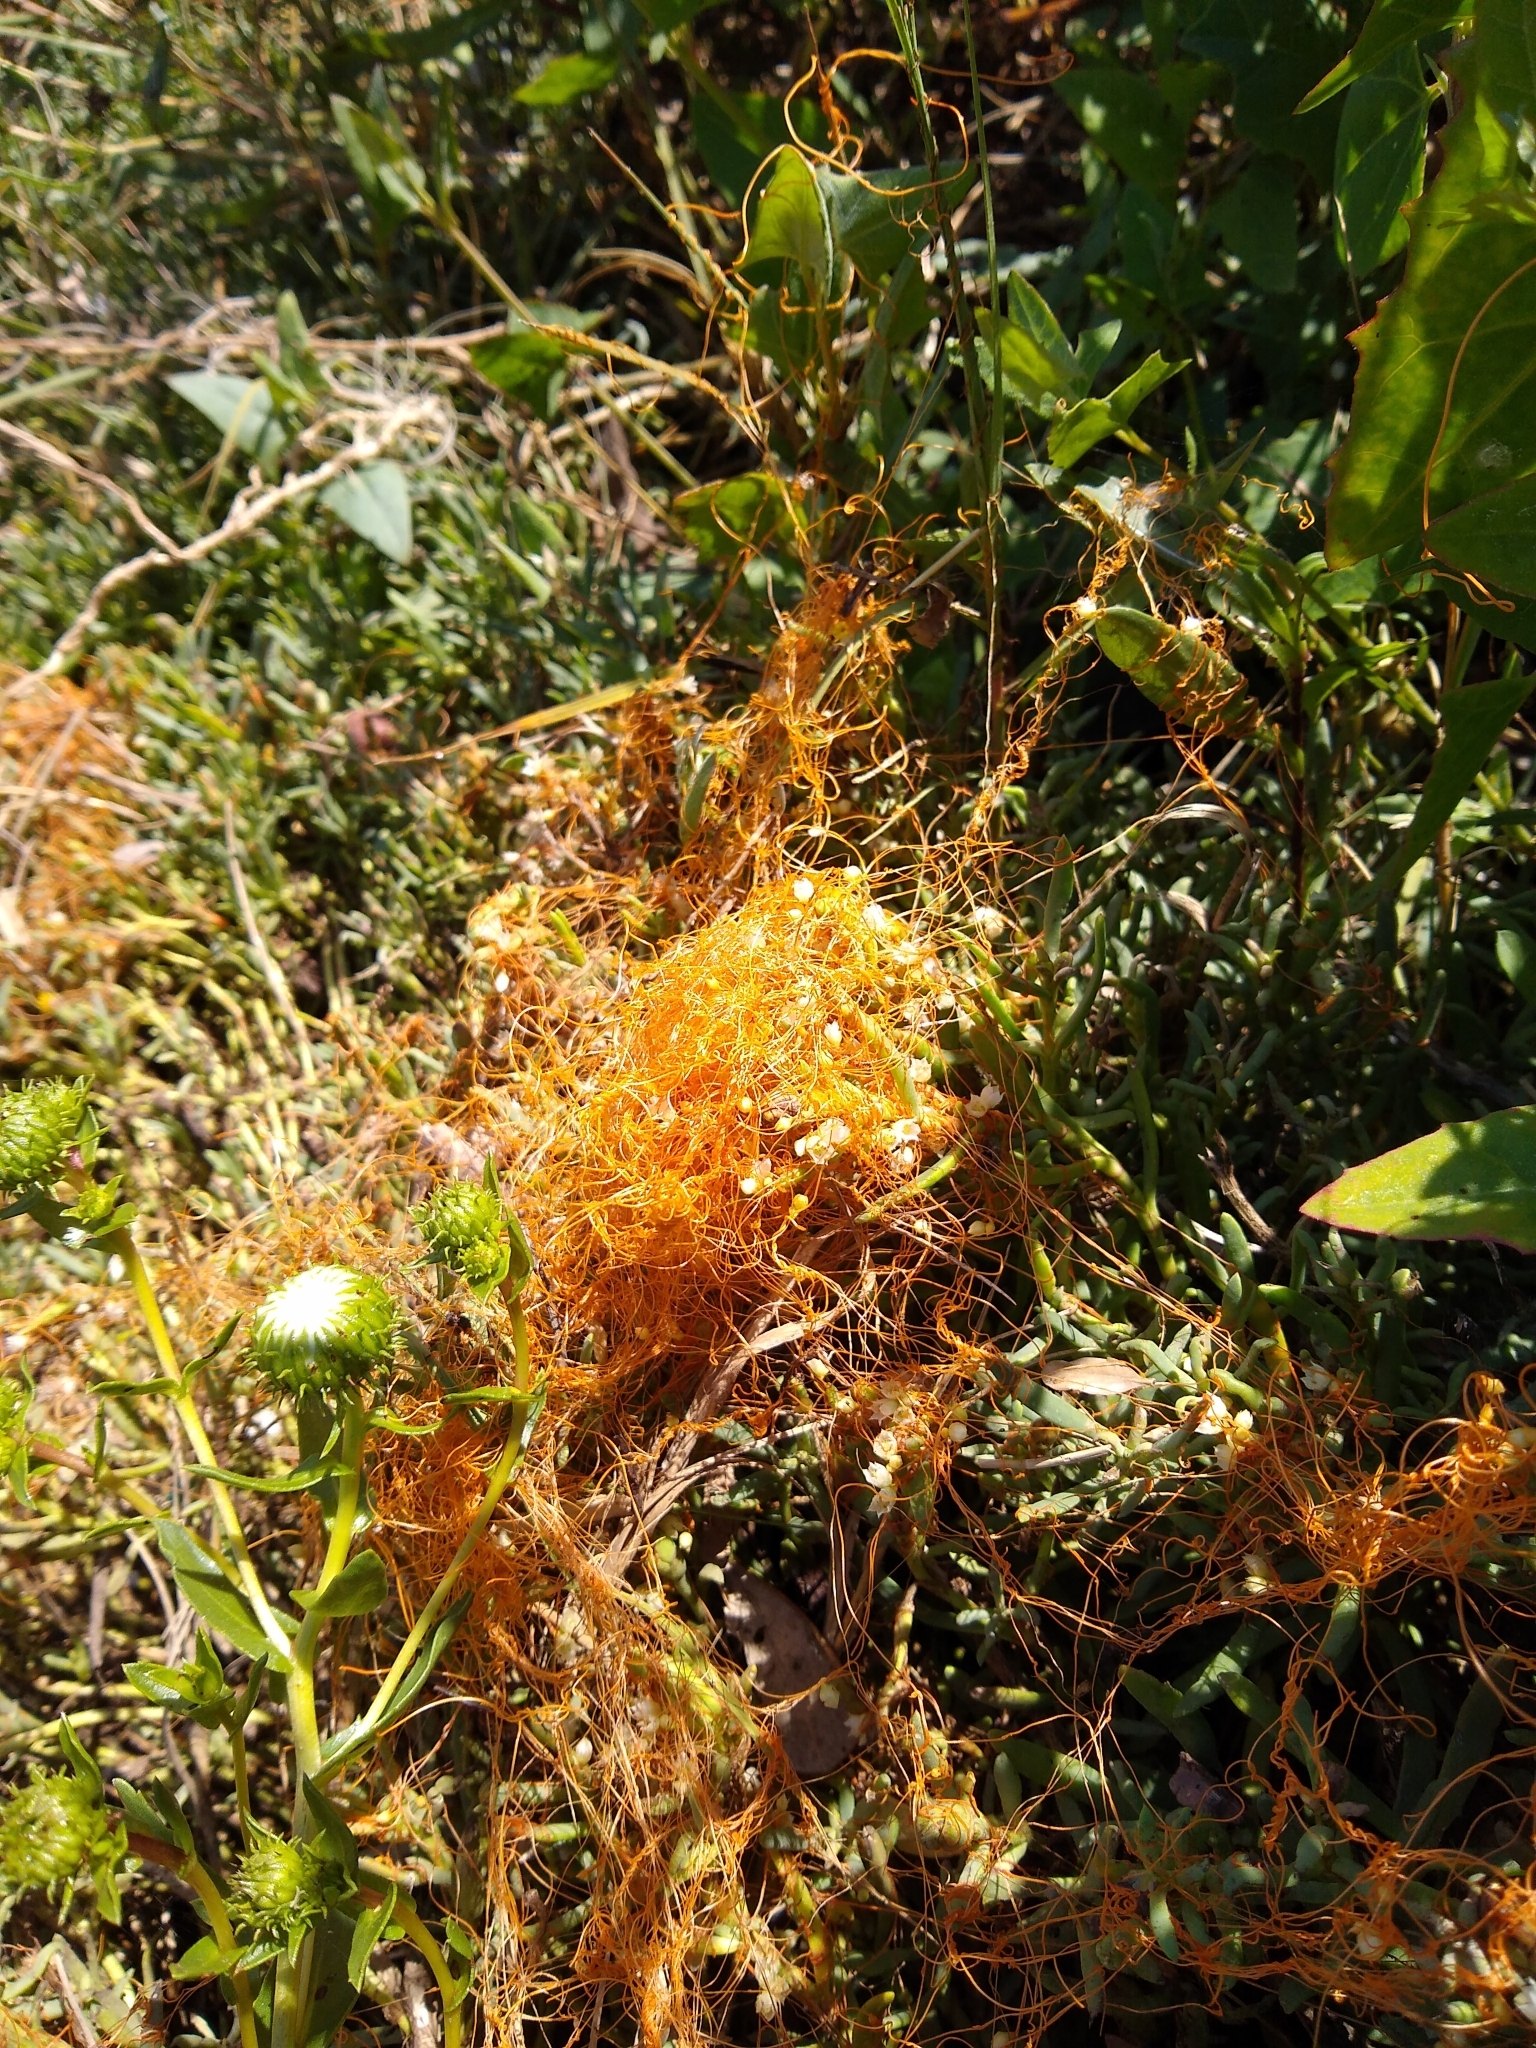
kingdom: Plantae
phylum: Tracheophyta
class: Magnoliopsida
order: Solanales
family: Convolvulaceae
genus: Cuscuta
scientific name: Cuscuta pacifica
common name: Large saltmarsh dodder
